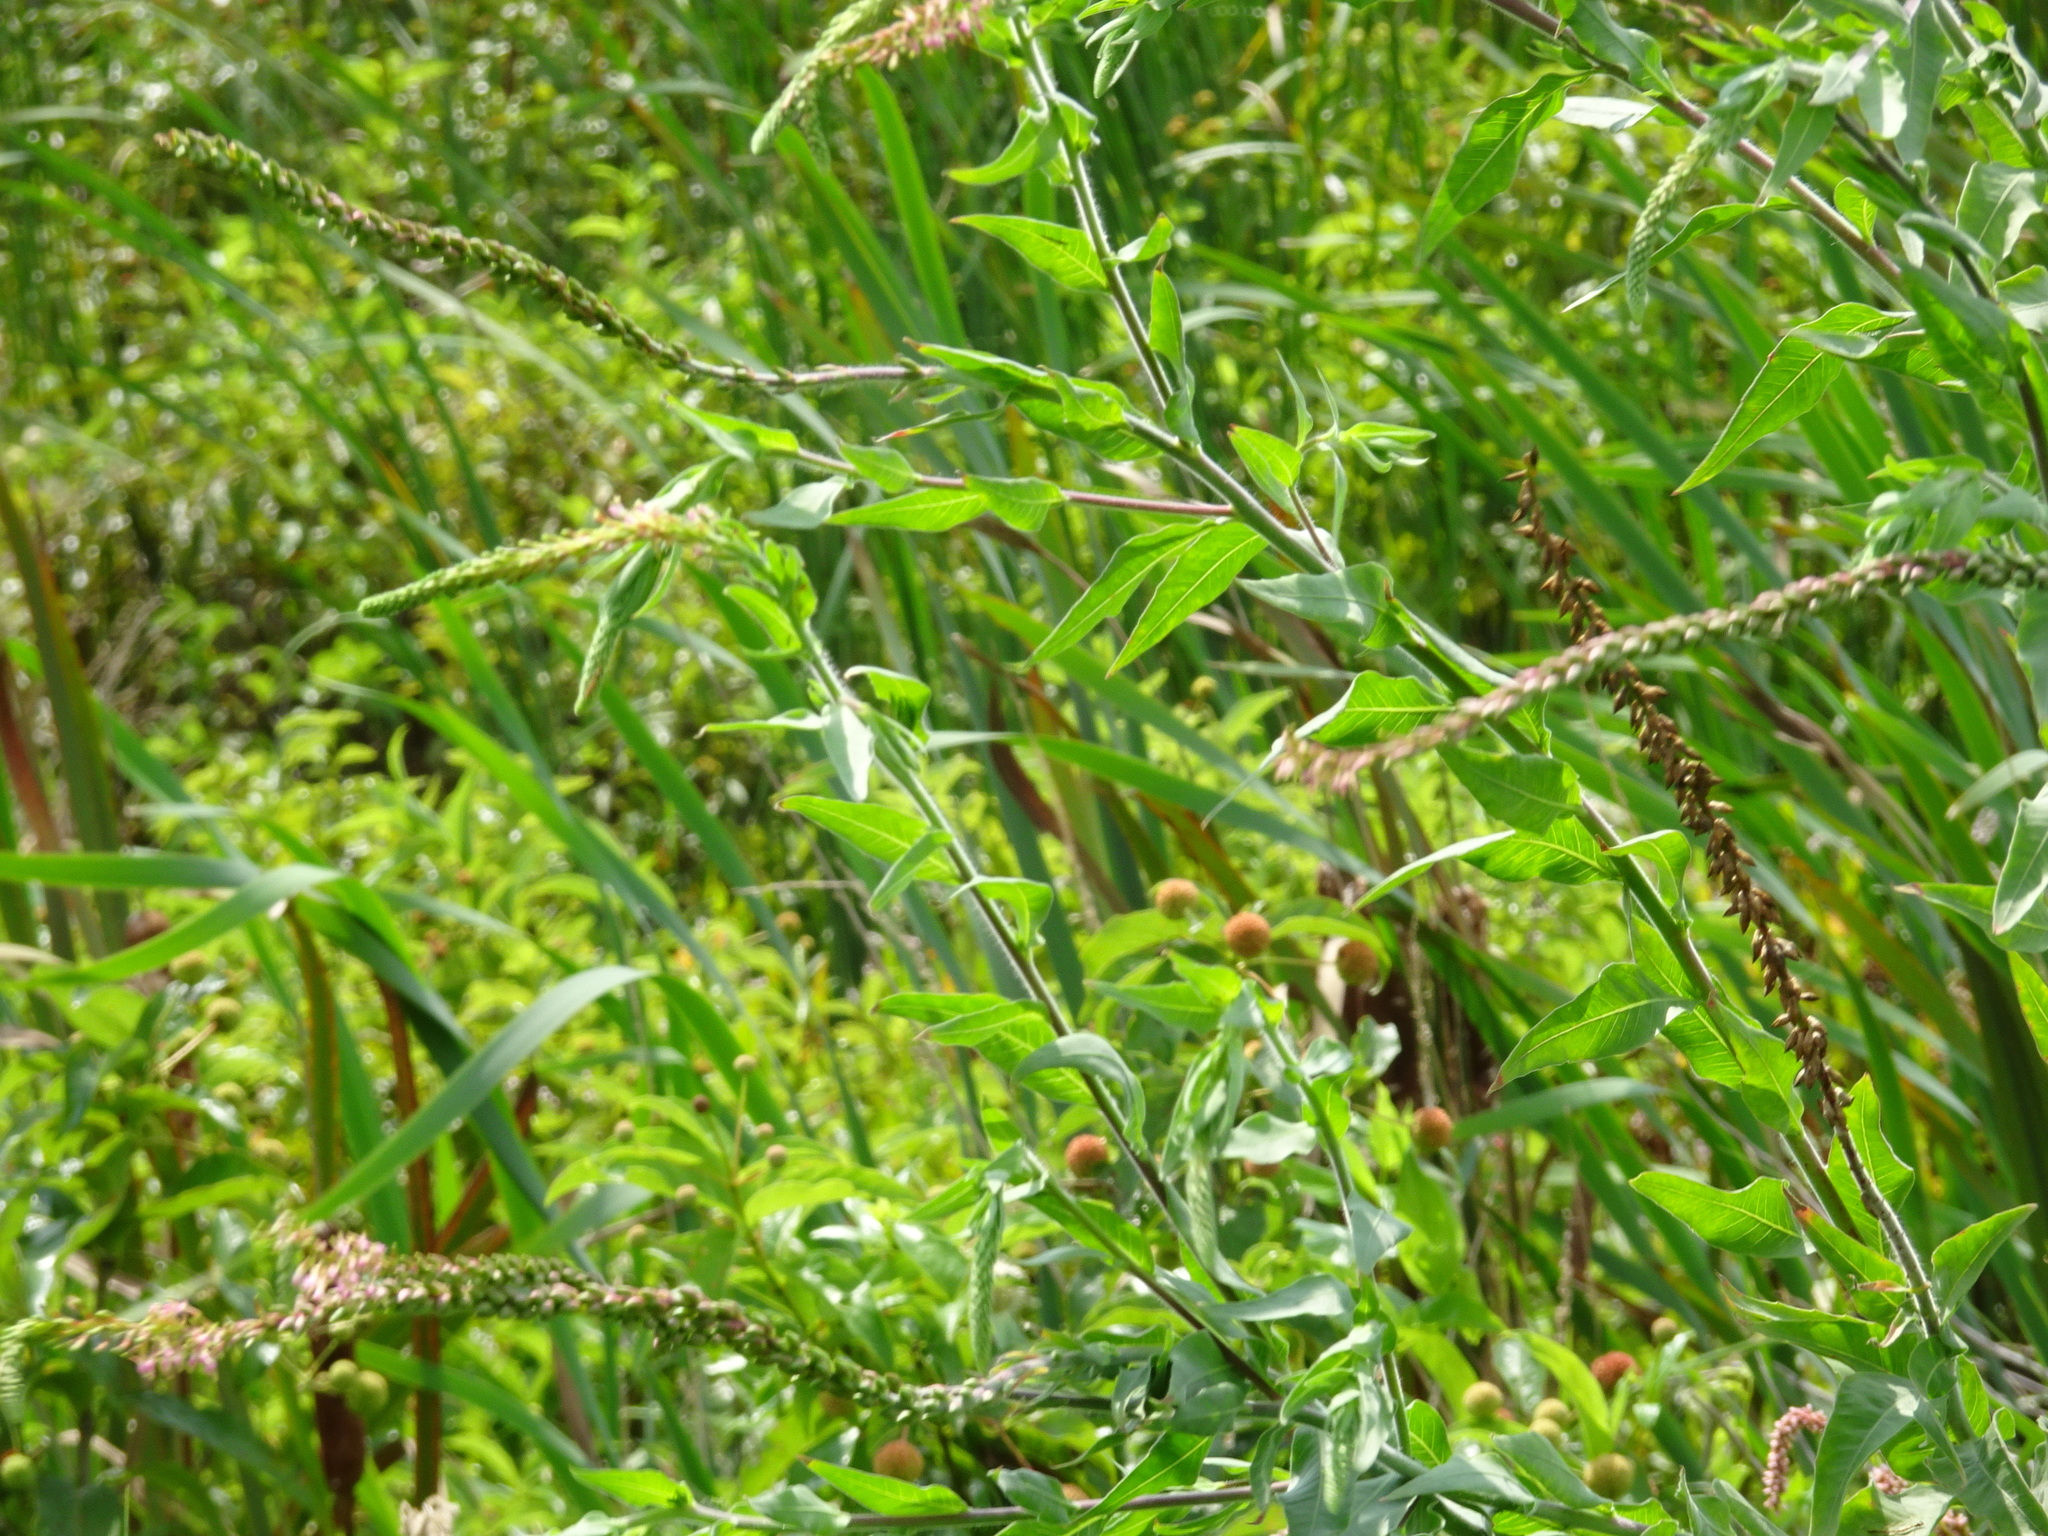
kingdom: Plantae
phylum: Tracheophyta
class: Magnoliopsida
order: Myrtales
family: Onagraceae
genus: Oenothera
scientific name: Oenothera curtiflora
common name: Velvetweed
